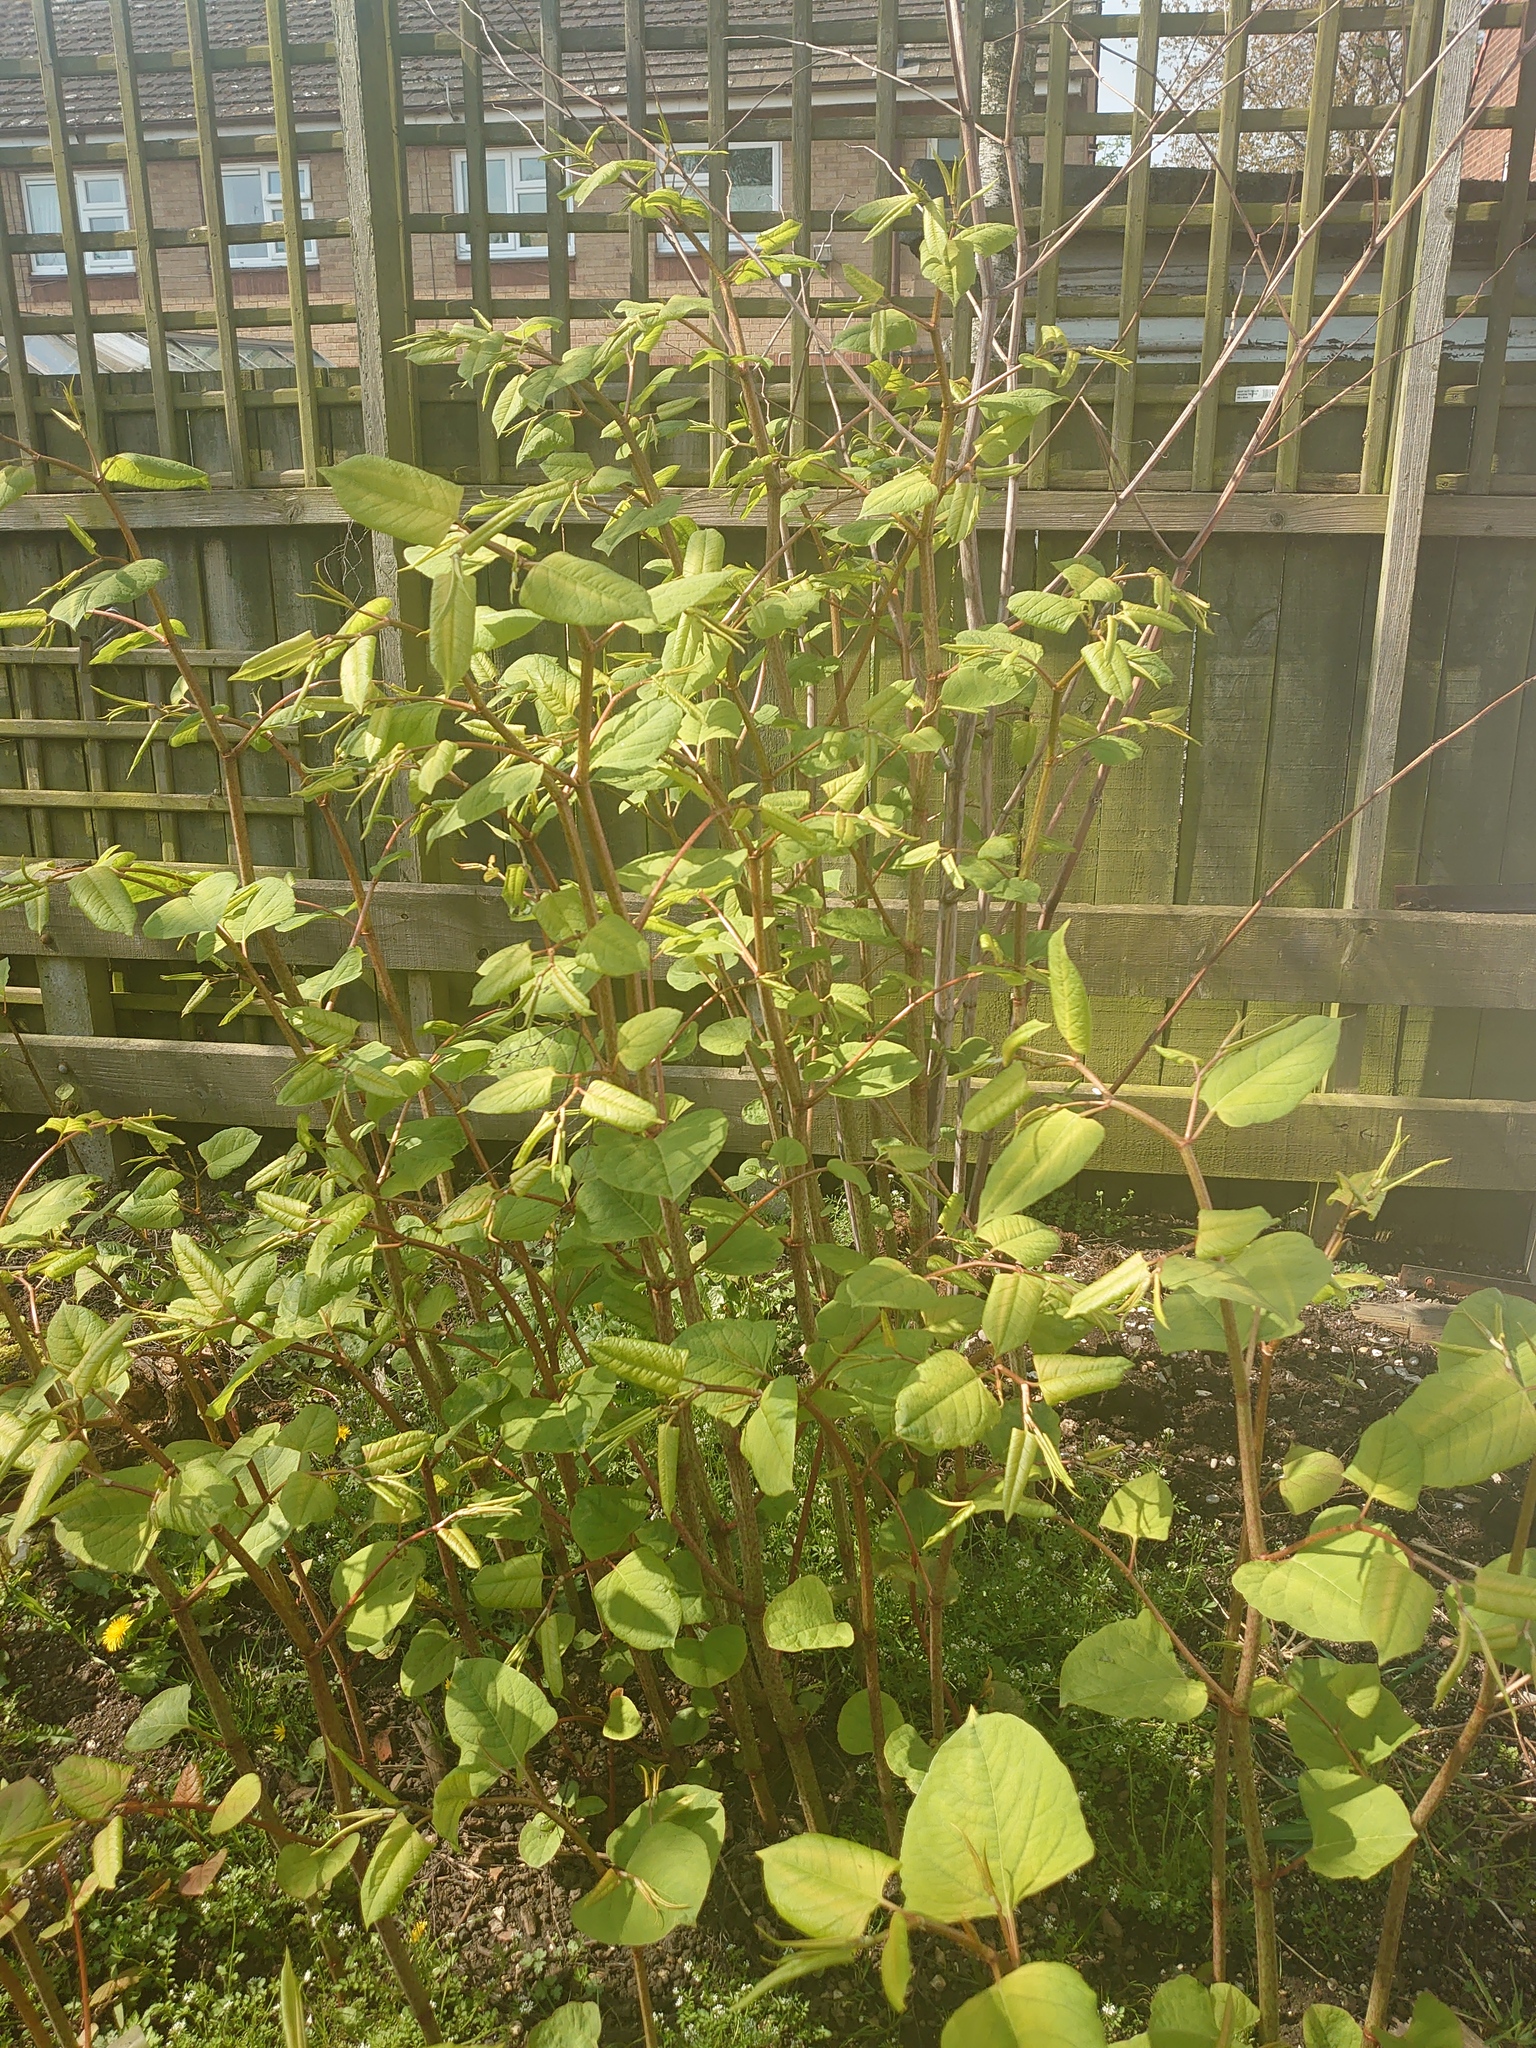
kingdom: Plantae
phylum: Tracheophyta
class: Magnoliopsida
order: Caryophyllales
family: Polygonaceae
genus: Reynoutria
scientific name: Reynoutria japonica
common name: Japanese knotweed
